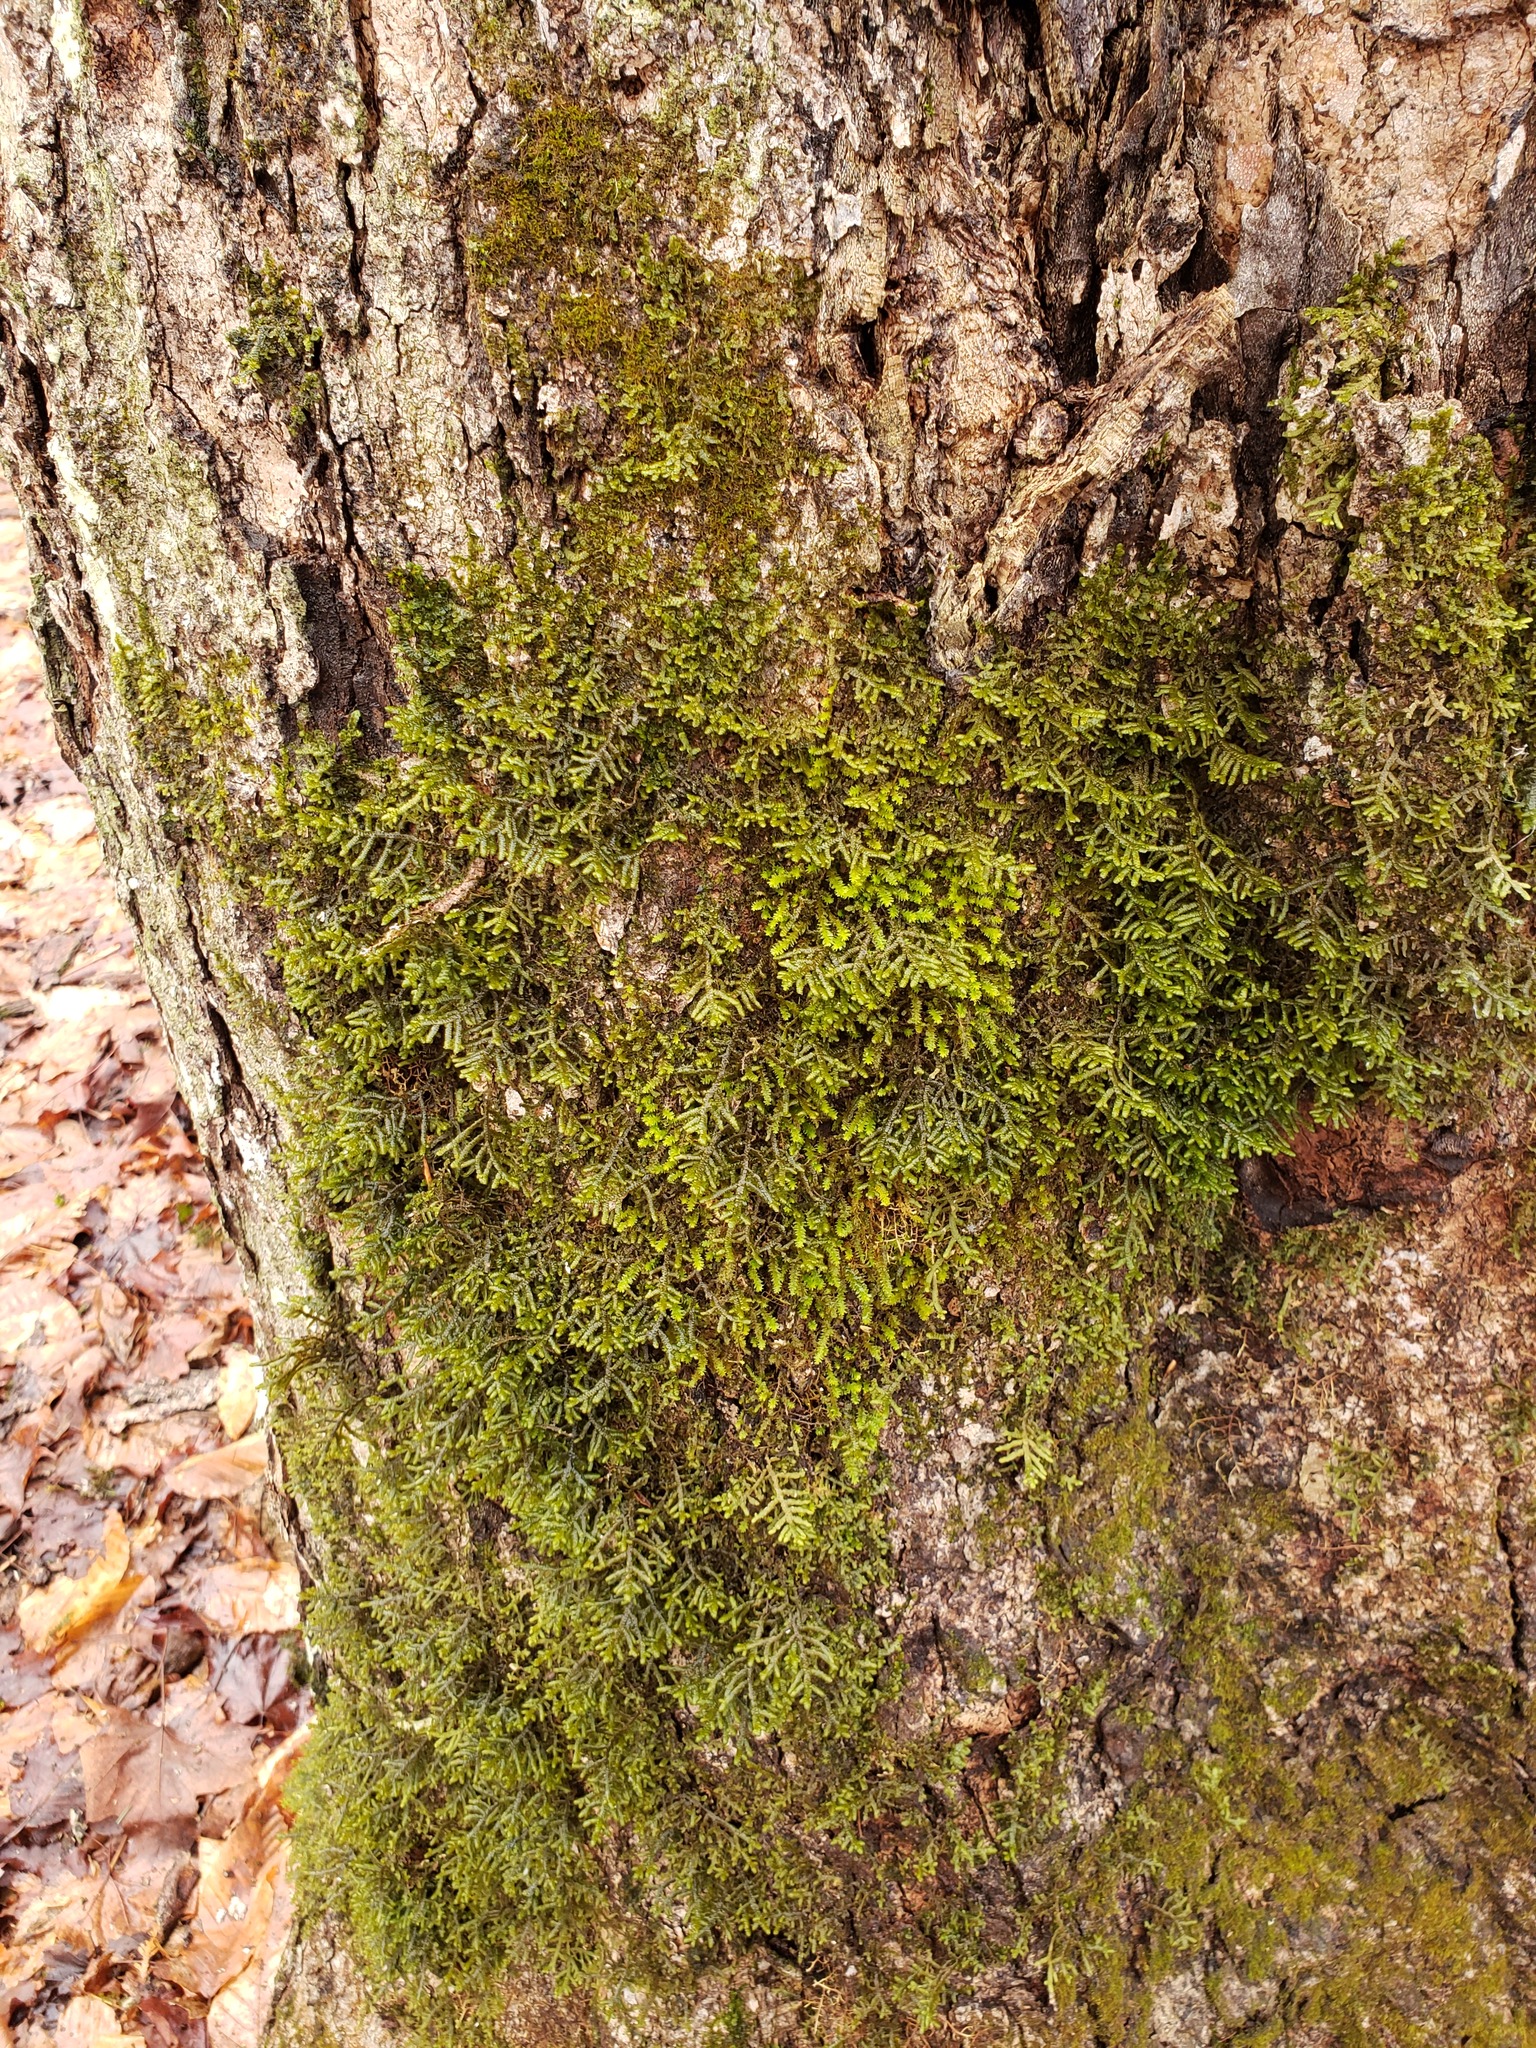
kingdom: Plantae
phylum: Marchantiophyta
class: Jungermanniopsida
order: Porellales
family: Porellaceae
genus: Porella
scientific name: Porella platyphylla
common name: Wall scalewort
